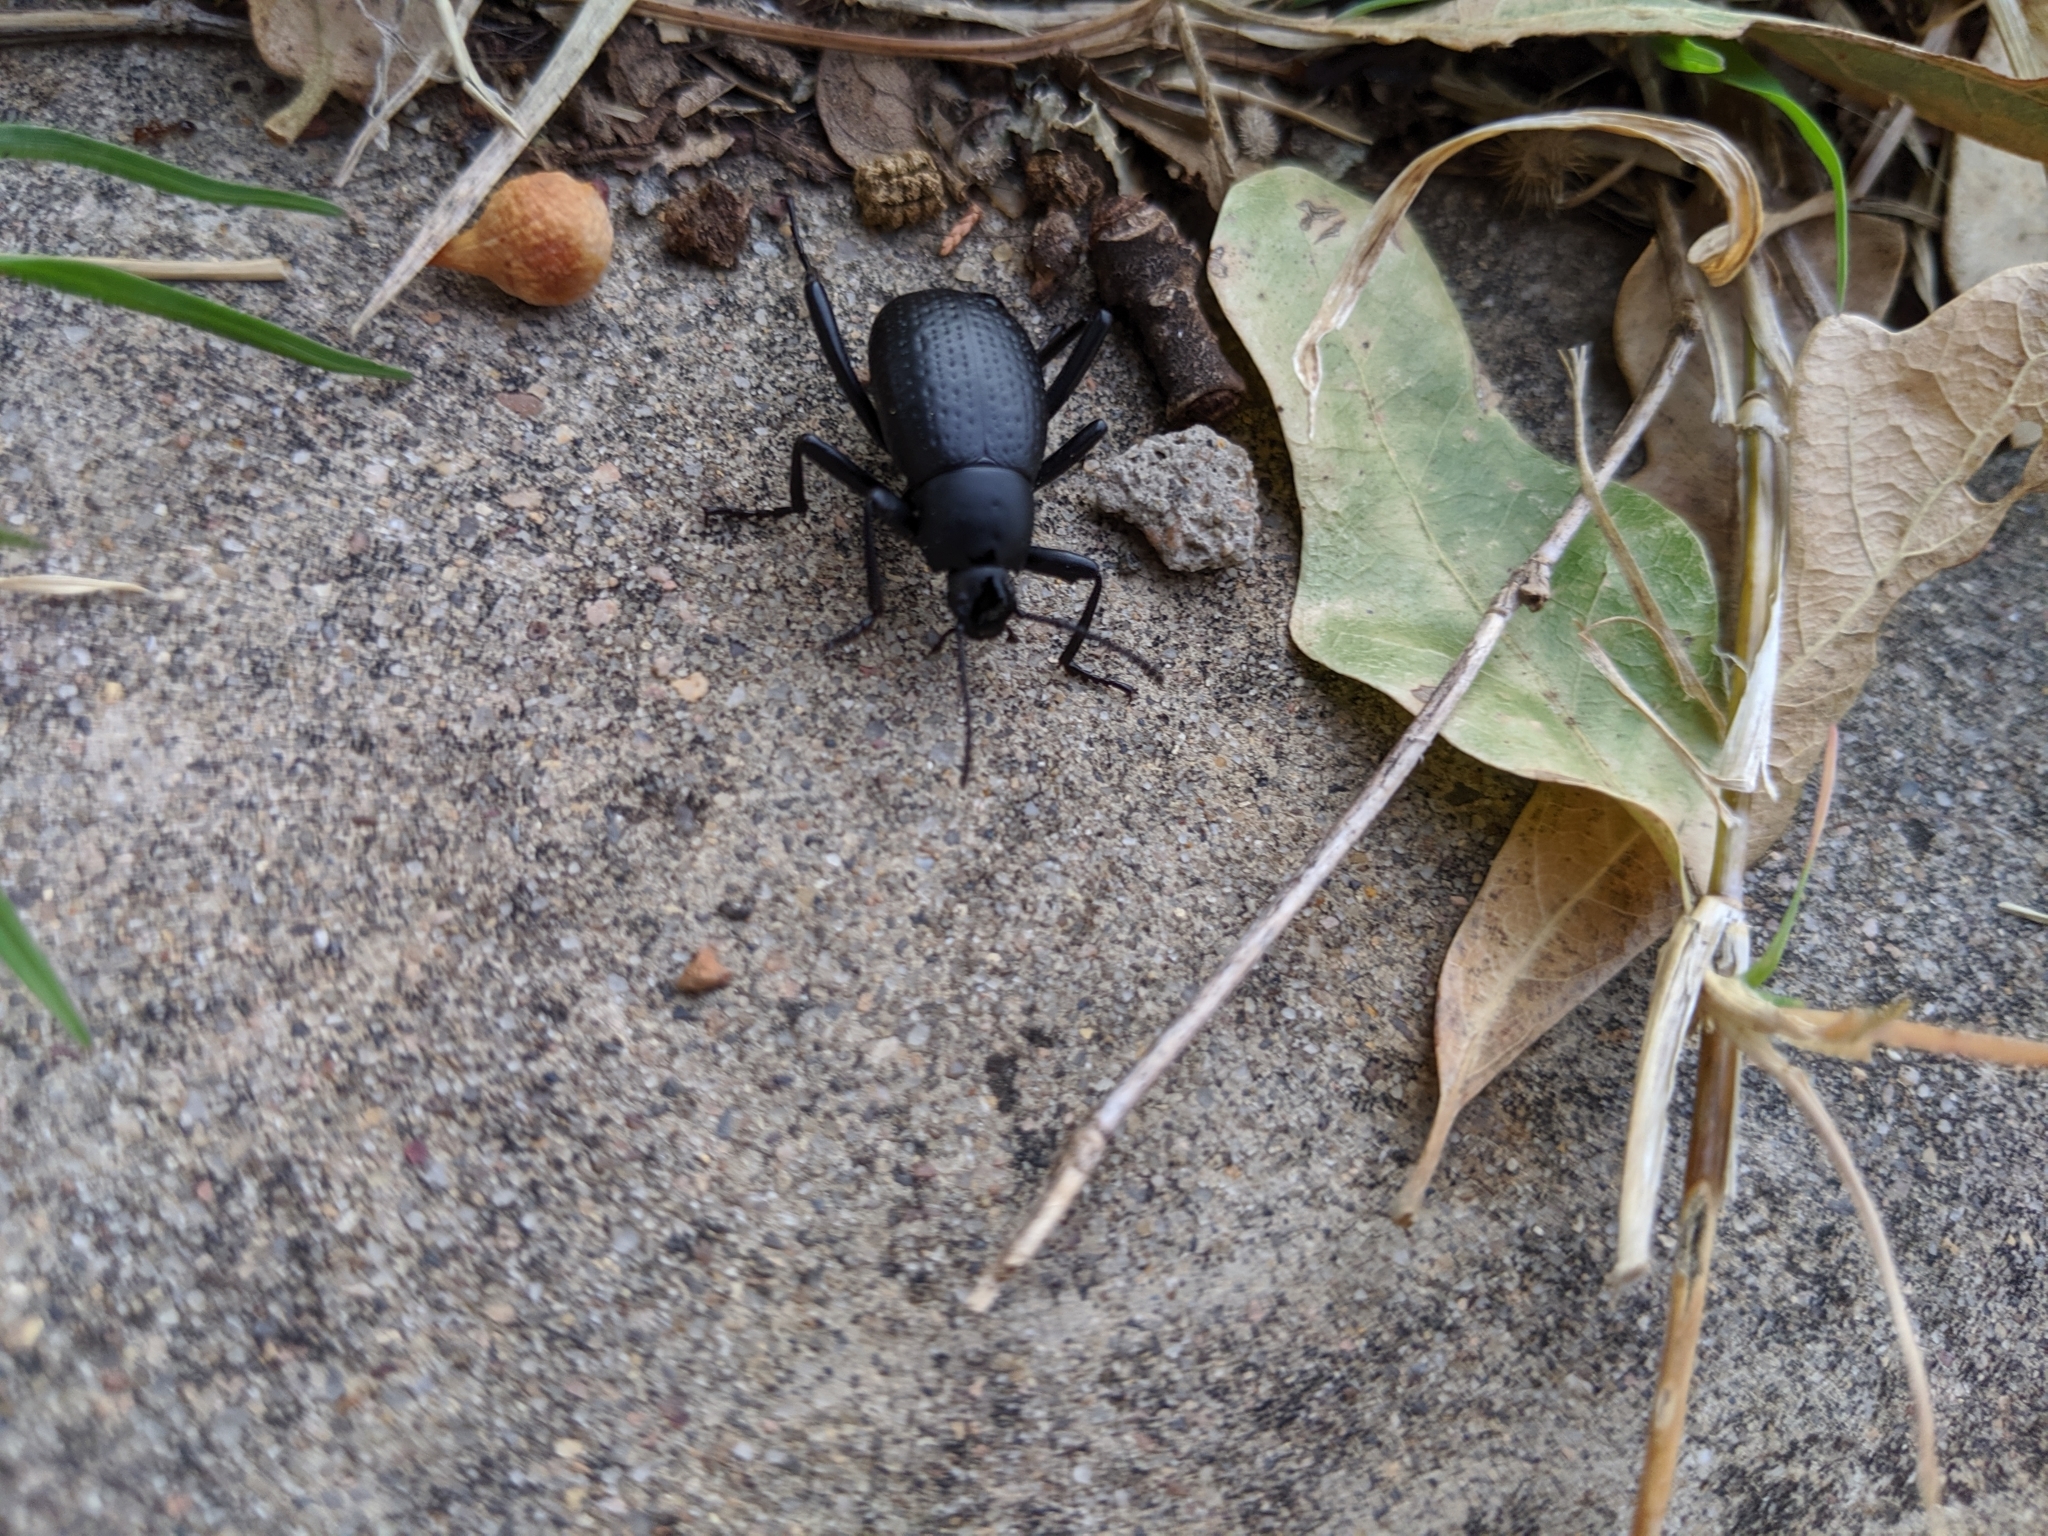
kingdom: Animalia
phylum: Arthropoda
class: Insecta
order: Coleoptera
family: Tenebrionidae
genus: Eleodes
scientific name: Eleodes goryi
